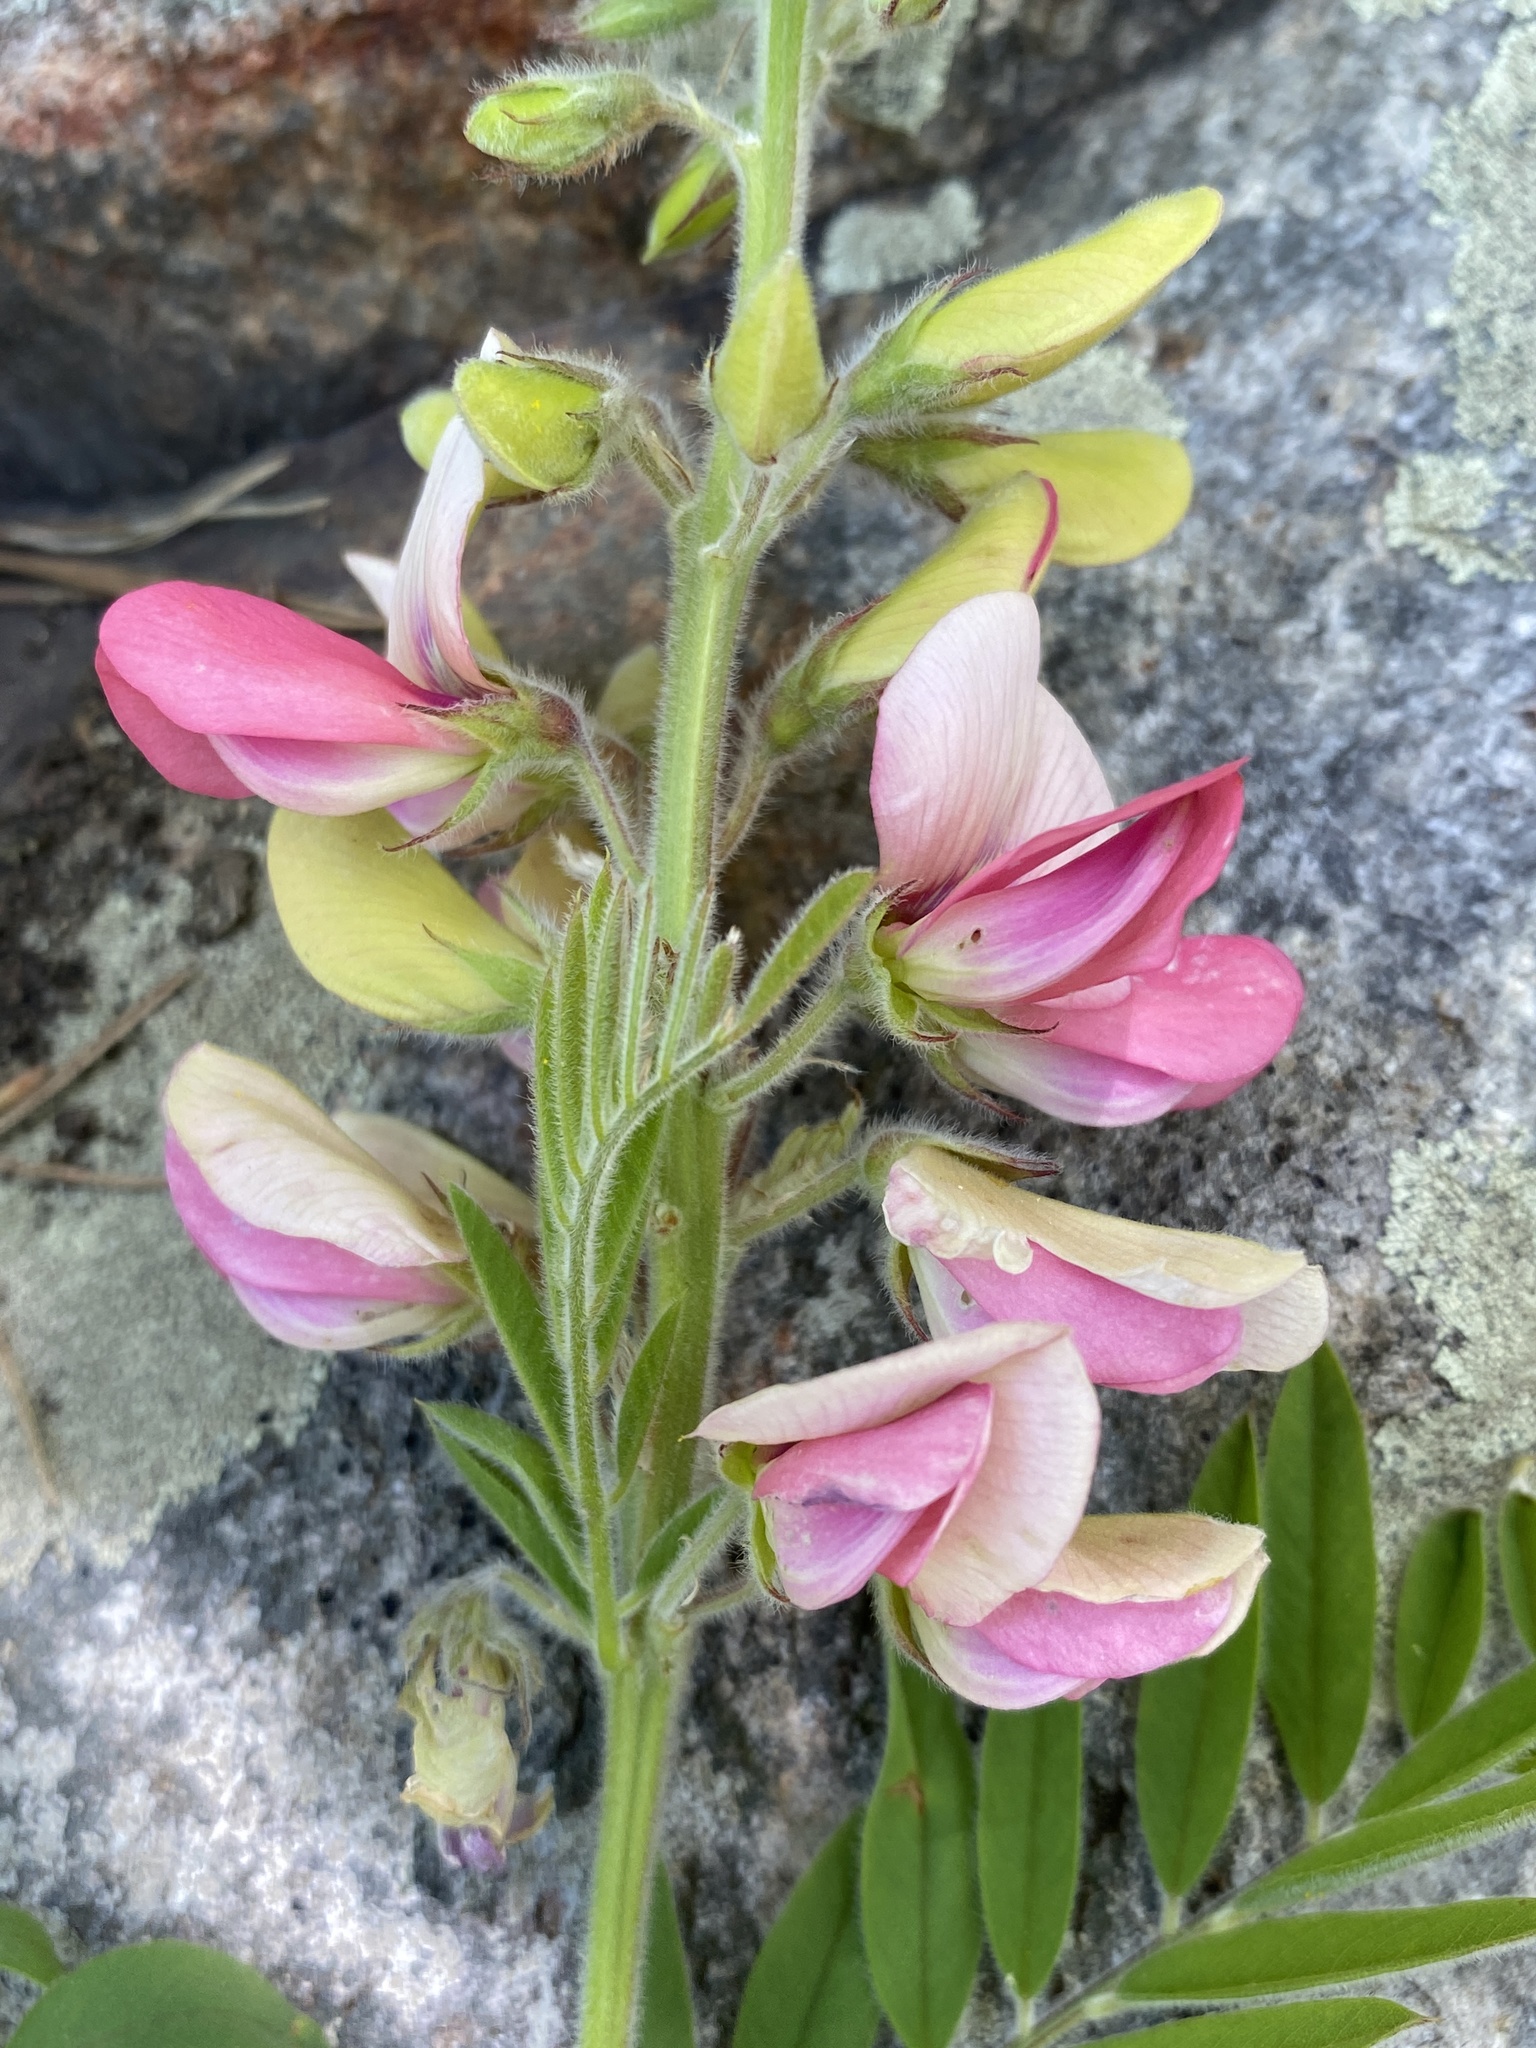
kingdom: Plantae
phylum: Tracheophyta
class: Magnoliopsida
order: Fabales
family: Fabaceae
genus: Tephrosia
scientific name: Tephrosia virginiana
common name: Rabbit-pea
